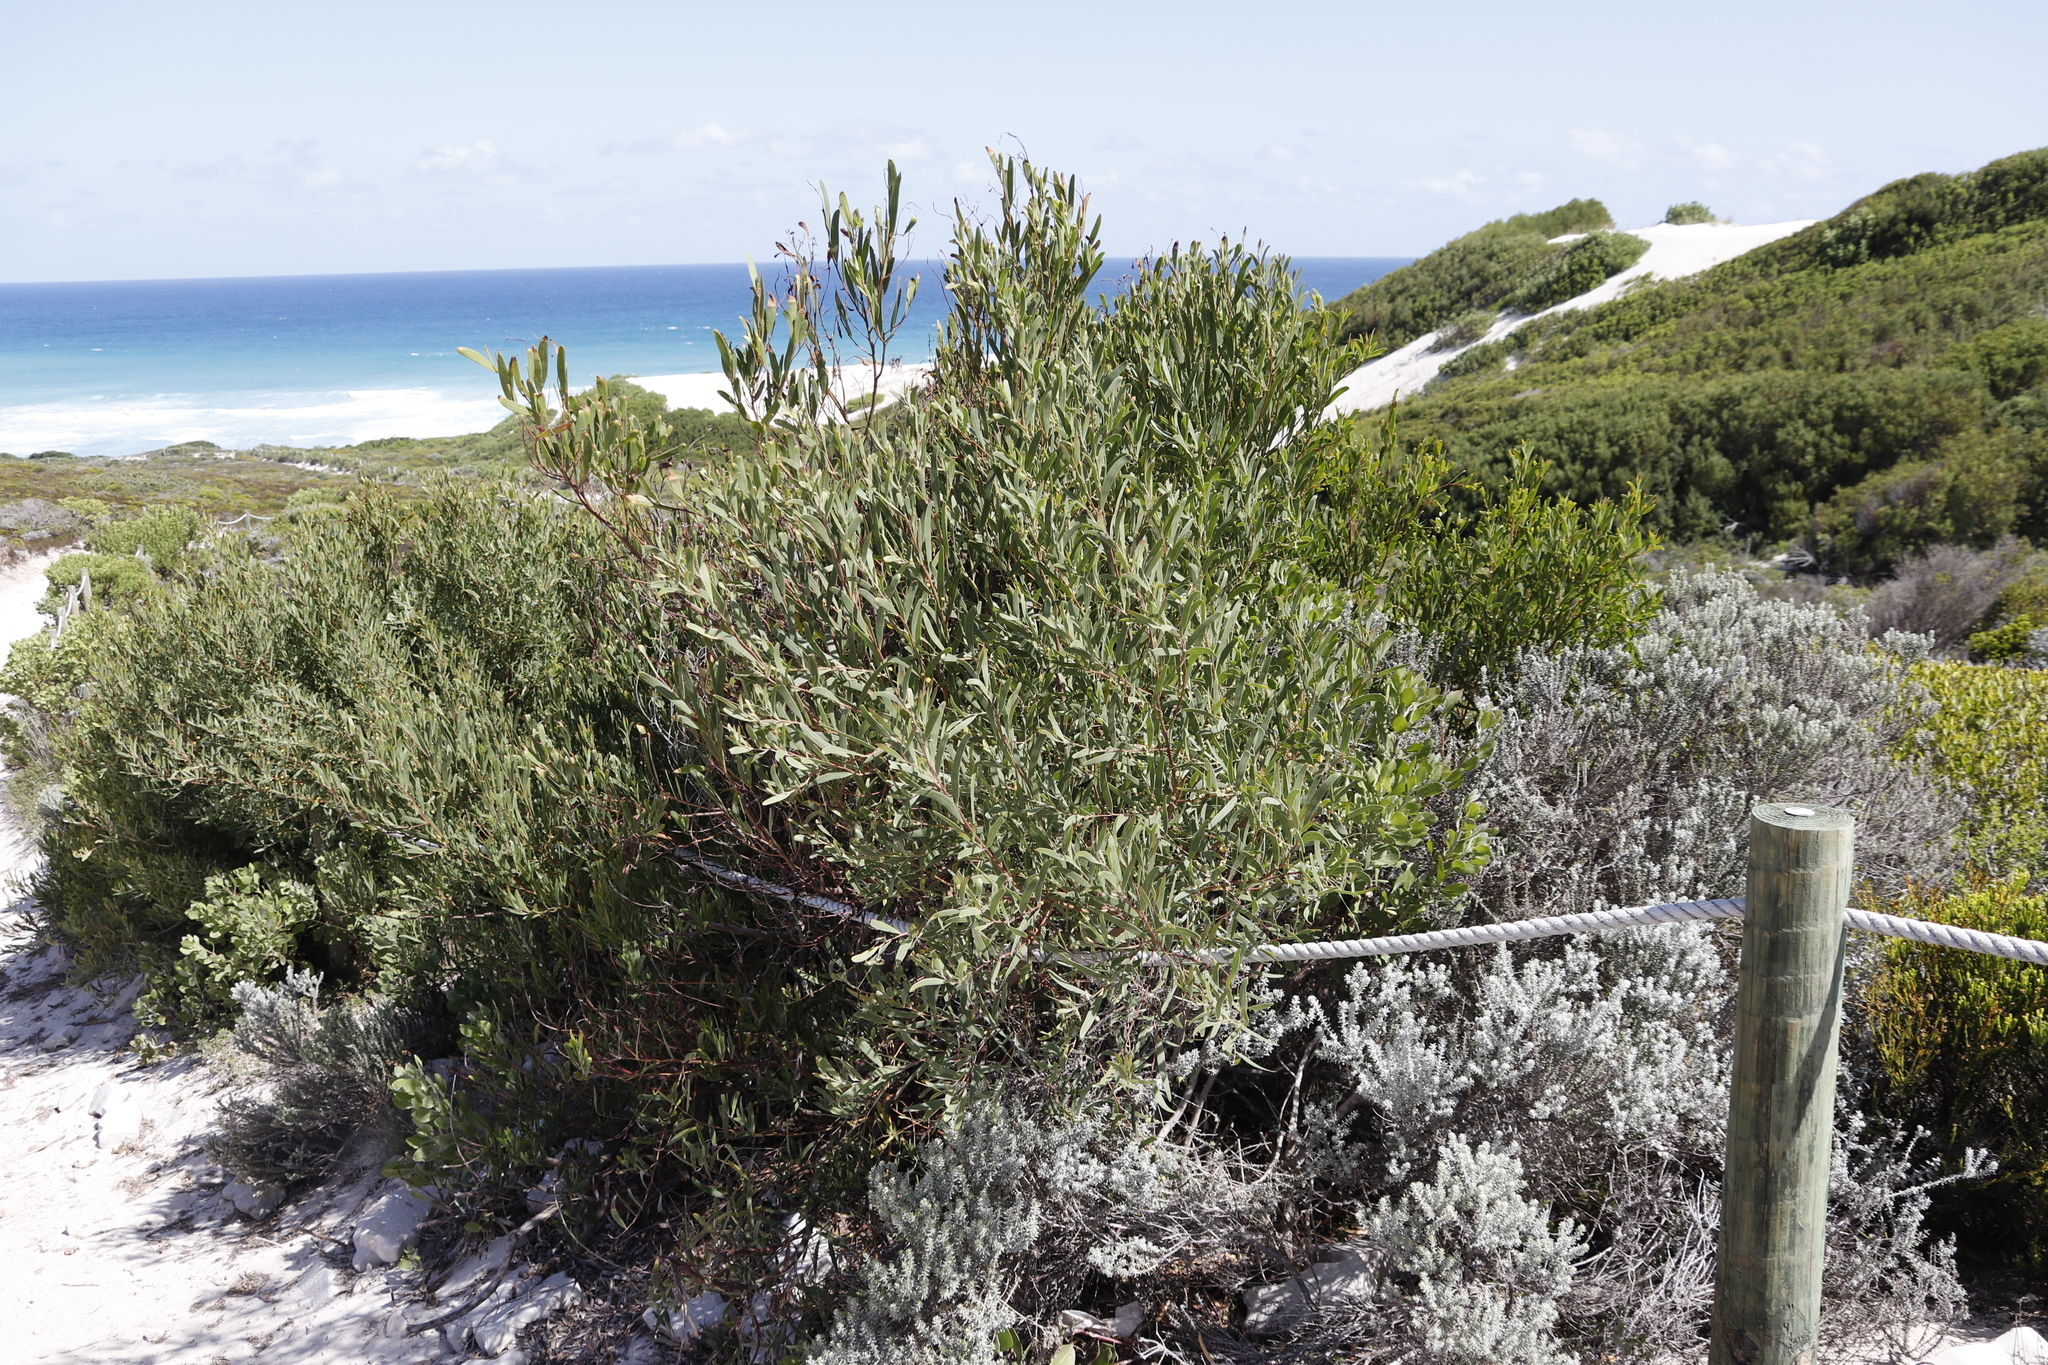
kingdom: Plantae
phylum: Tracheophyta
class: Magnoliopsida
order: Fabales
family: Fabaceae
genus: Acacia
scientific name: Acacia cyclops
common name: Coastal wattle
